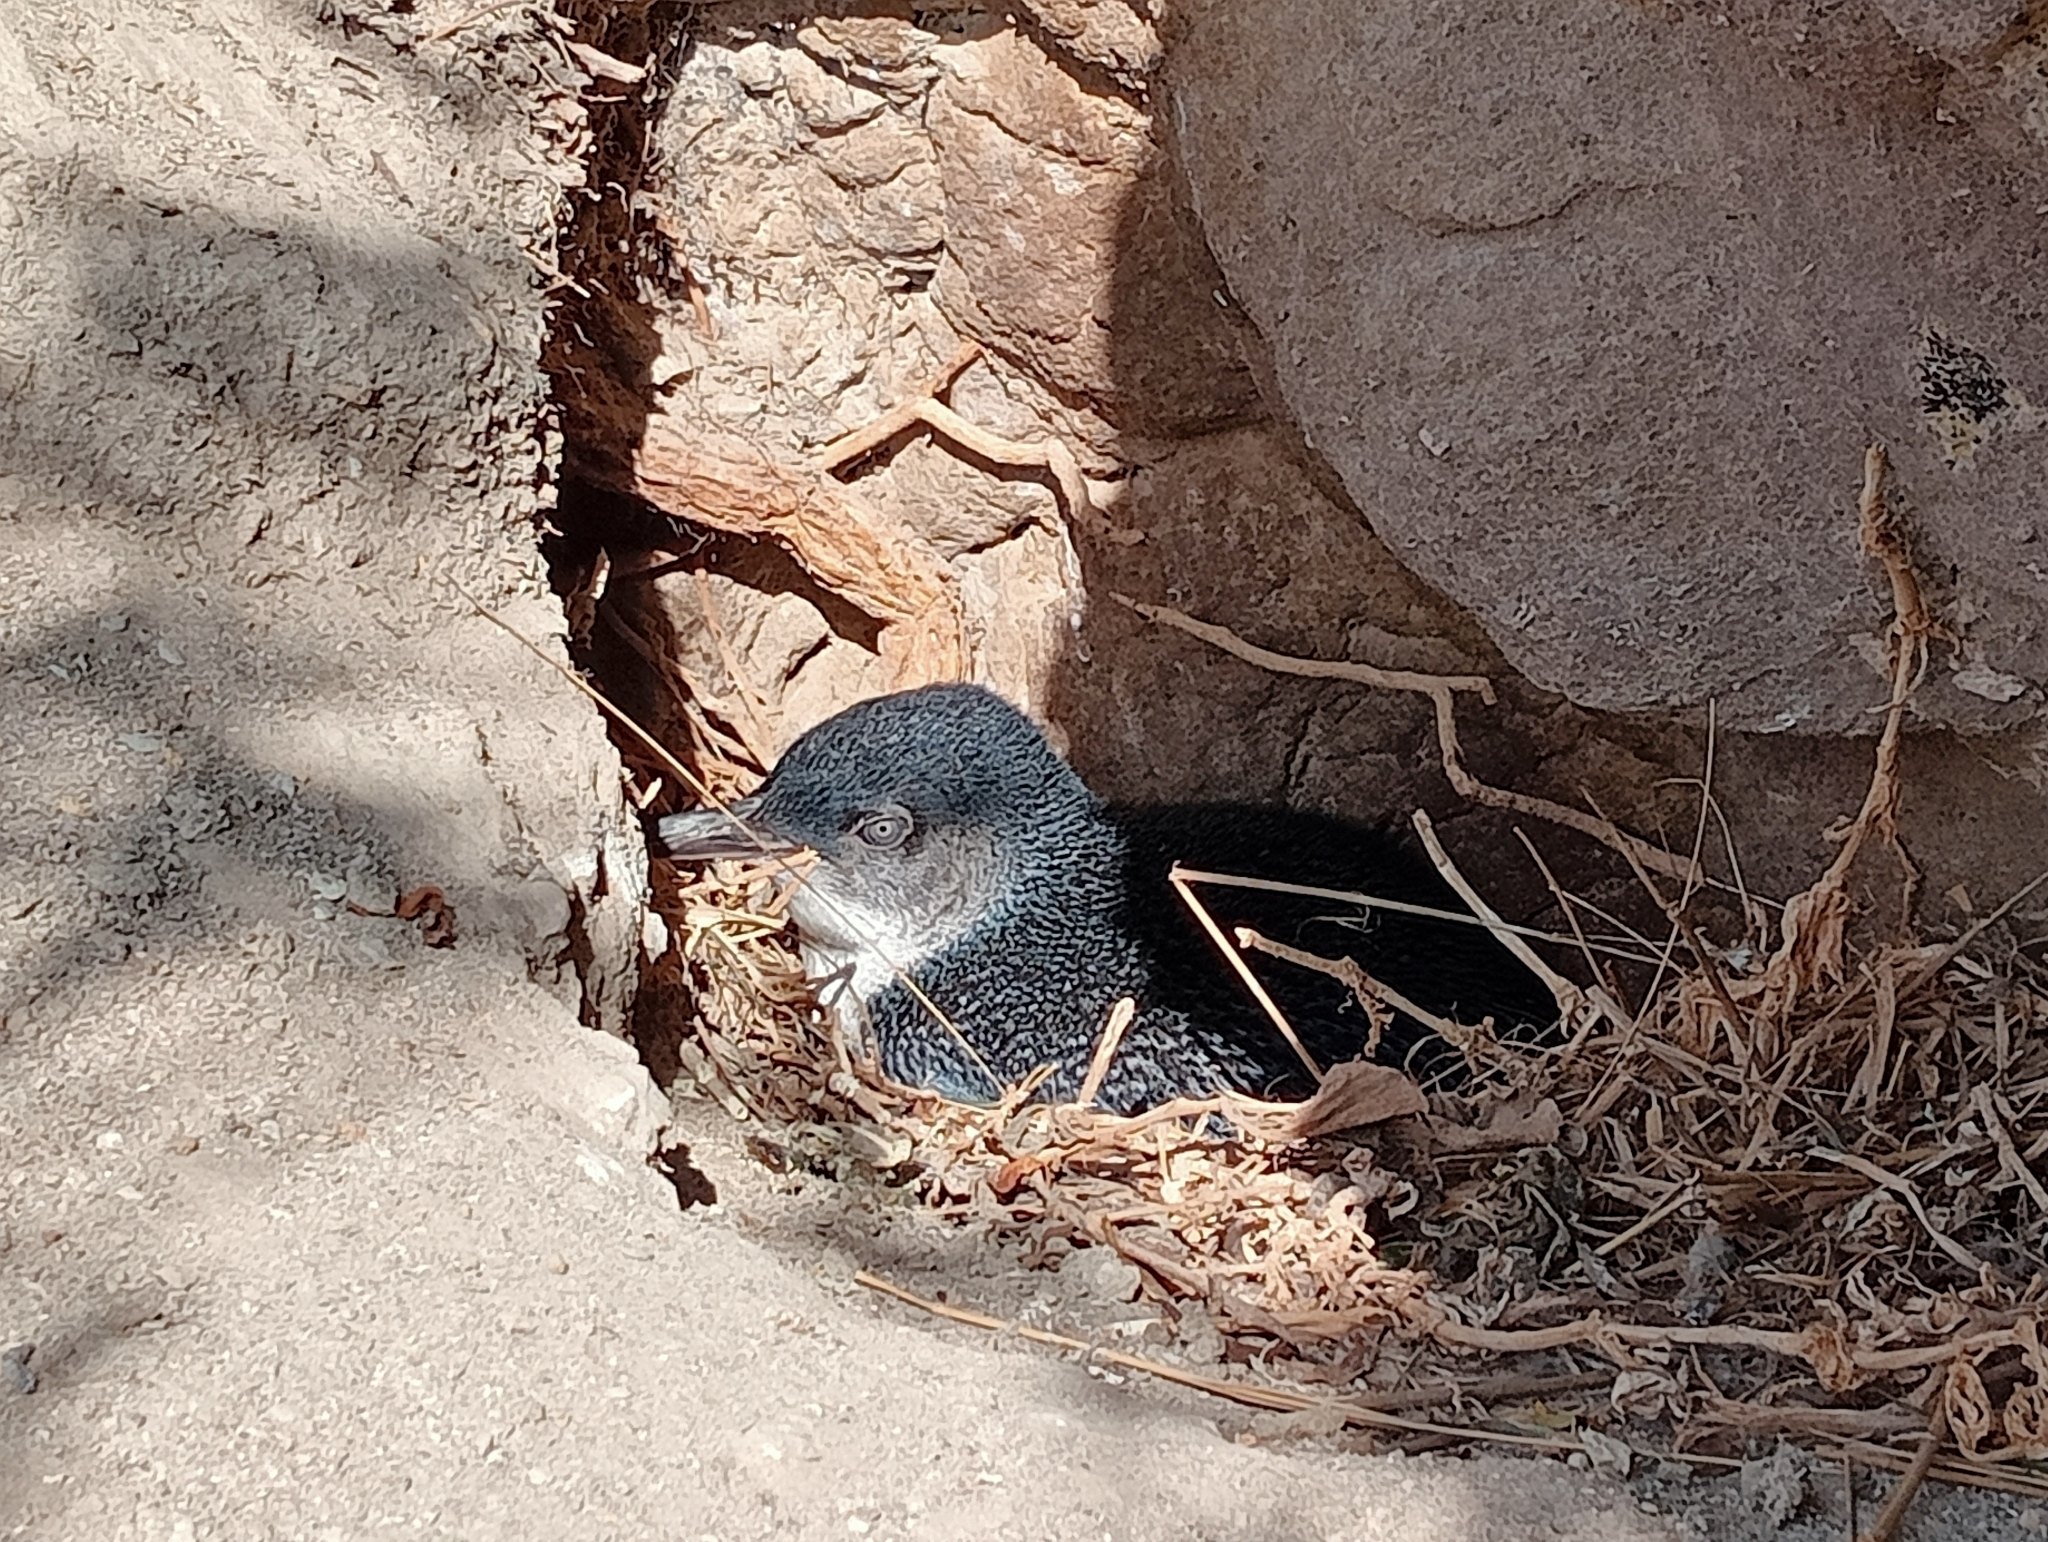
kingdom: Animalia
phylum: Chordata
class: Aves
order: Sphenisciformes
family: Spheniscidae
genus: Eudyptula
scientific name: Eudyptula minor
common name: Little penguin
